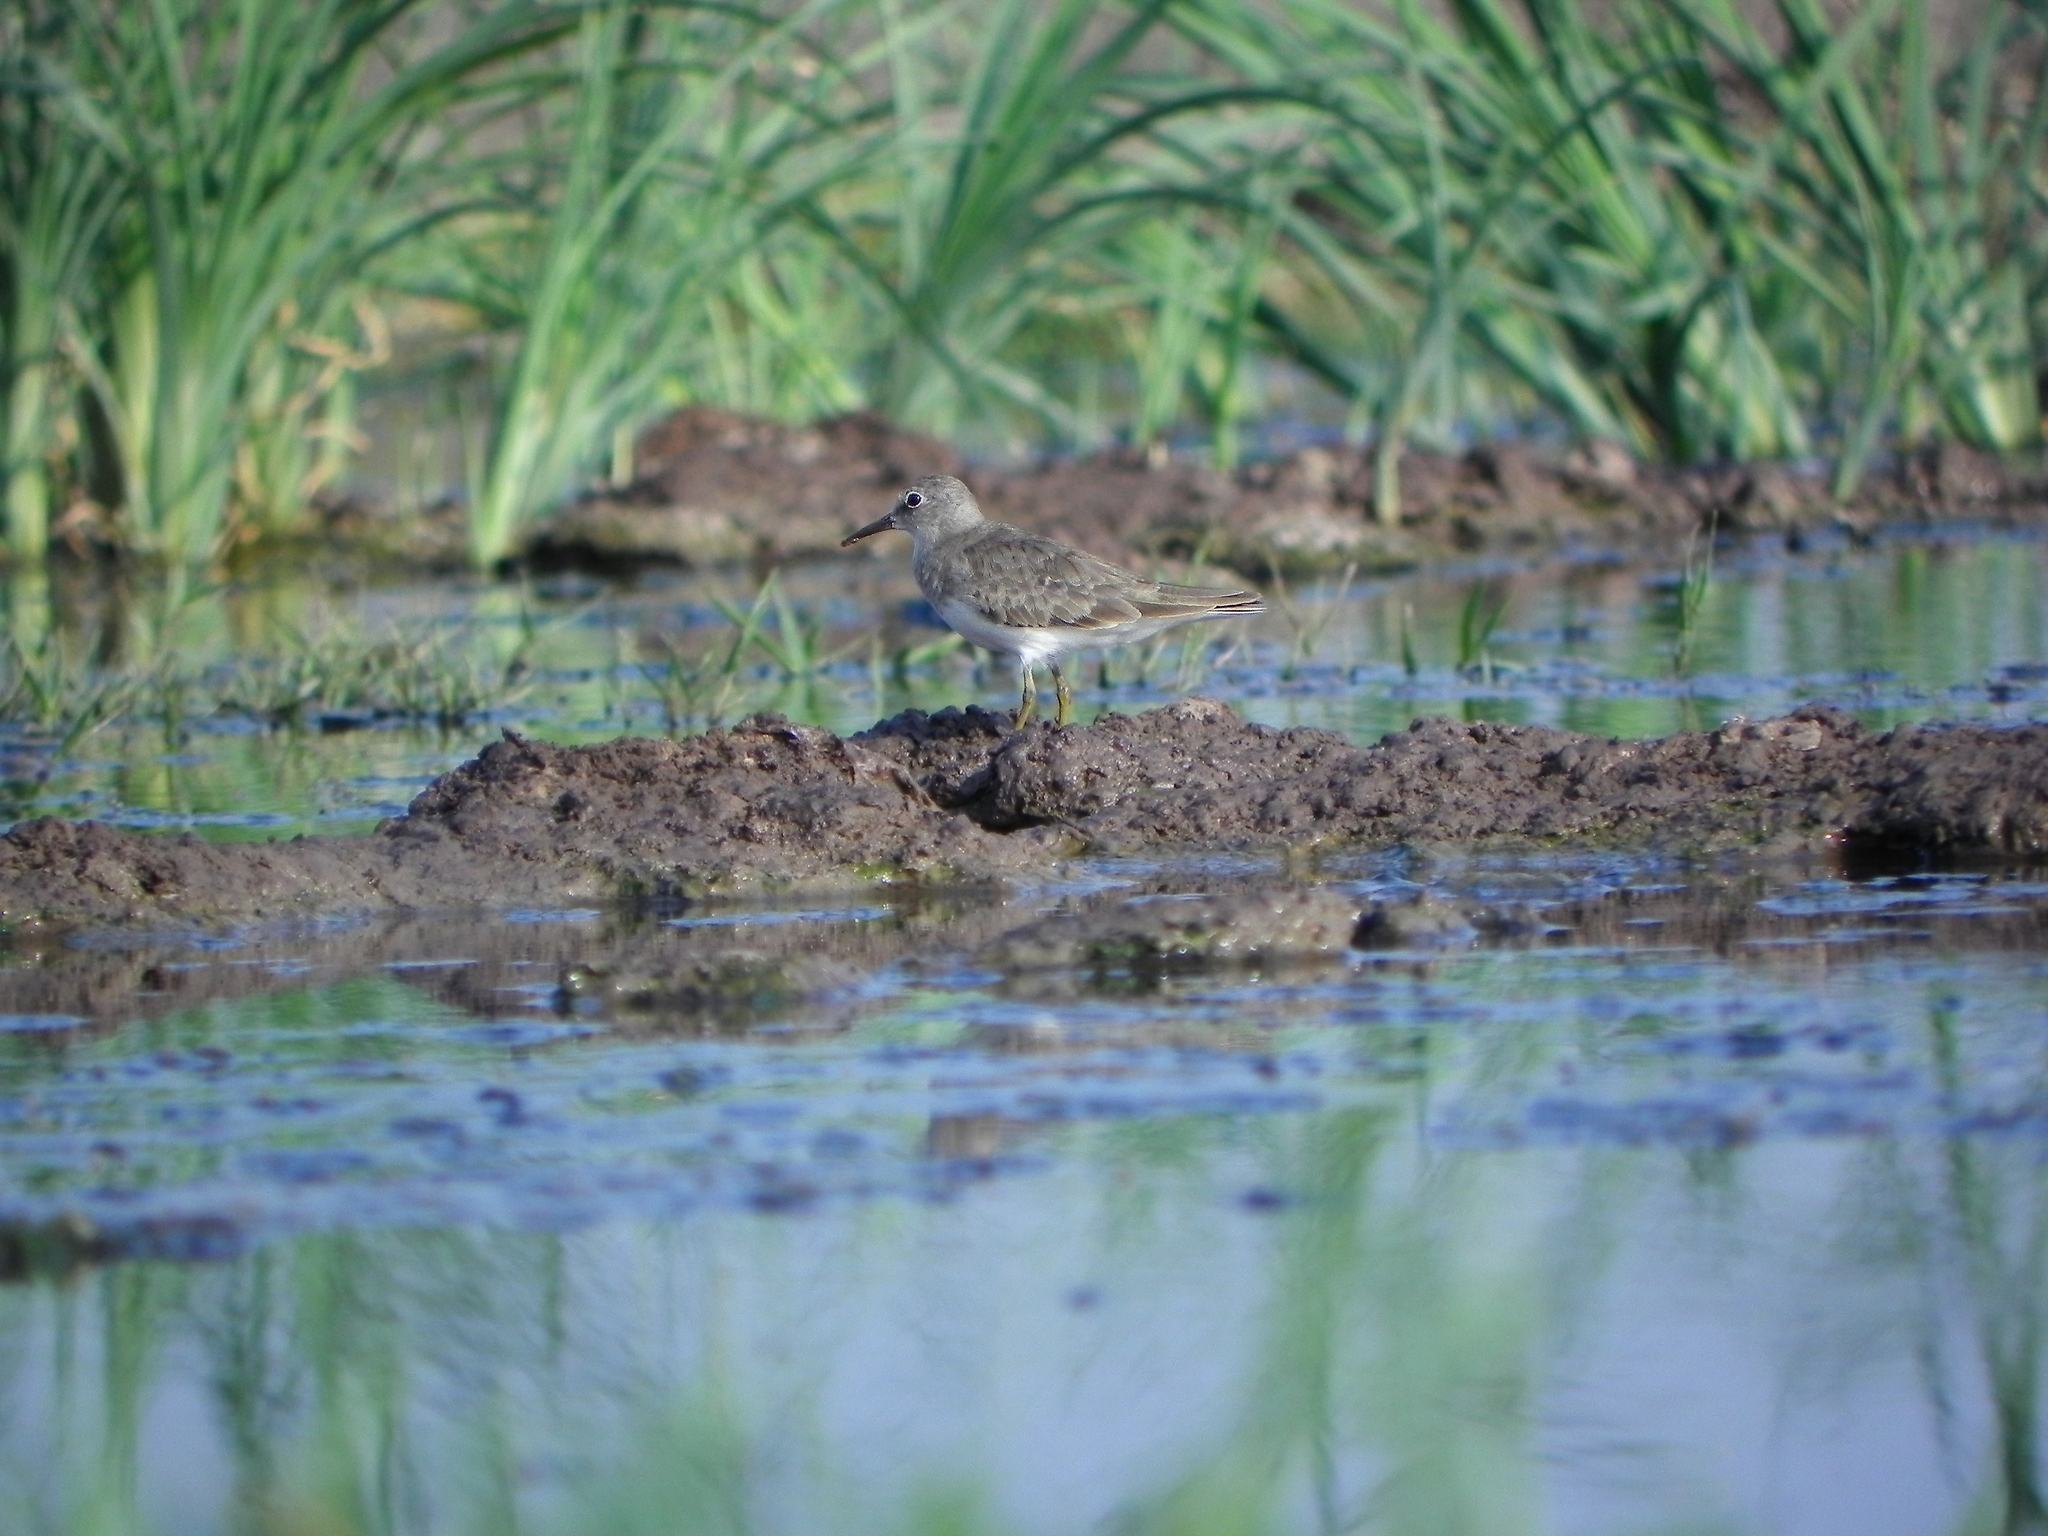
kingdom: Animalia
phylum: Chordata
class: Aves
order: Charadriiformes
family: Scolopacidae
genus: Calidris
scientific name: Calidris temminckii
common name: Temminck's stint
